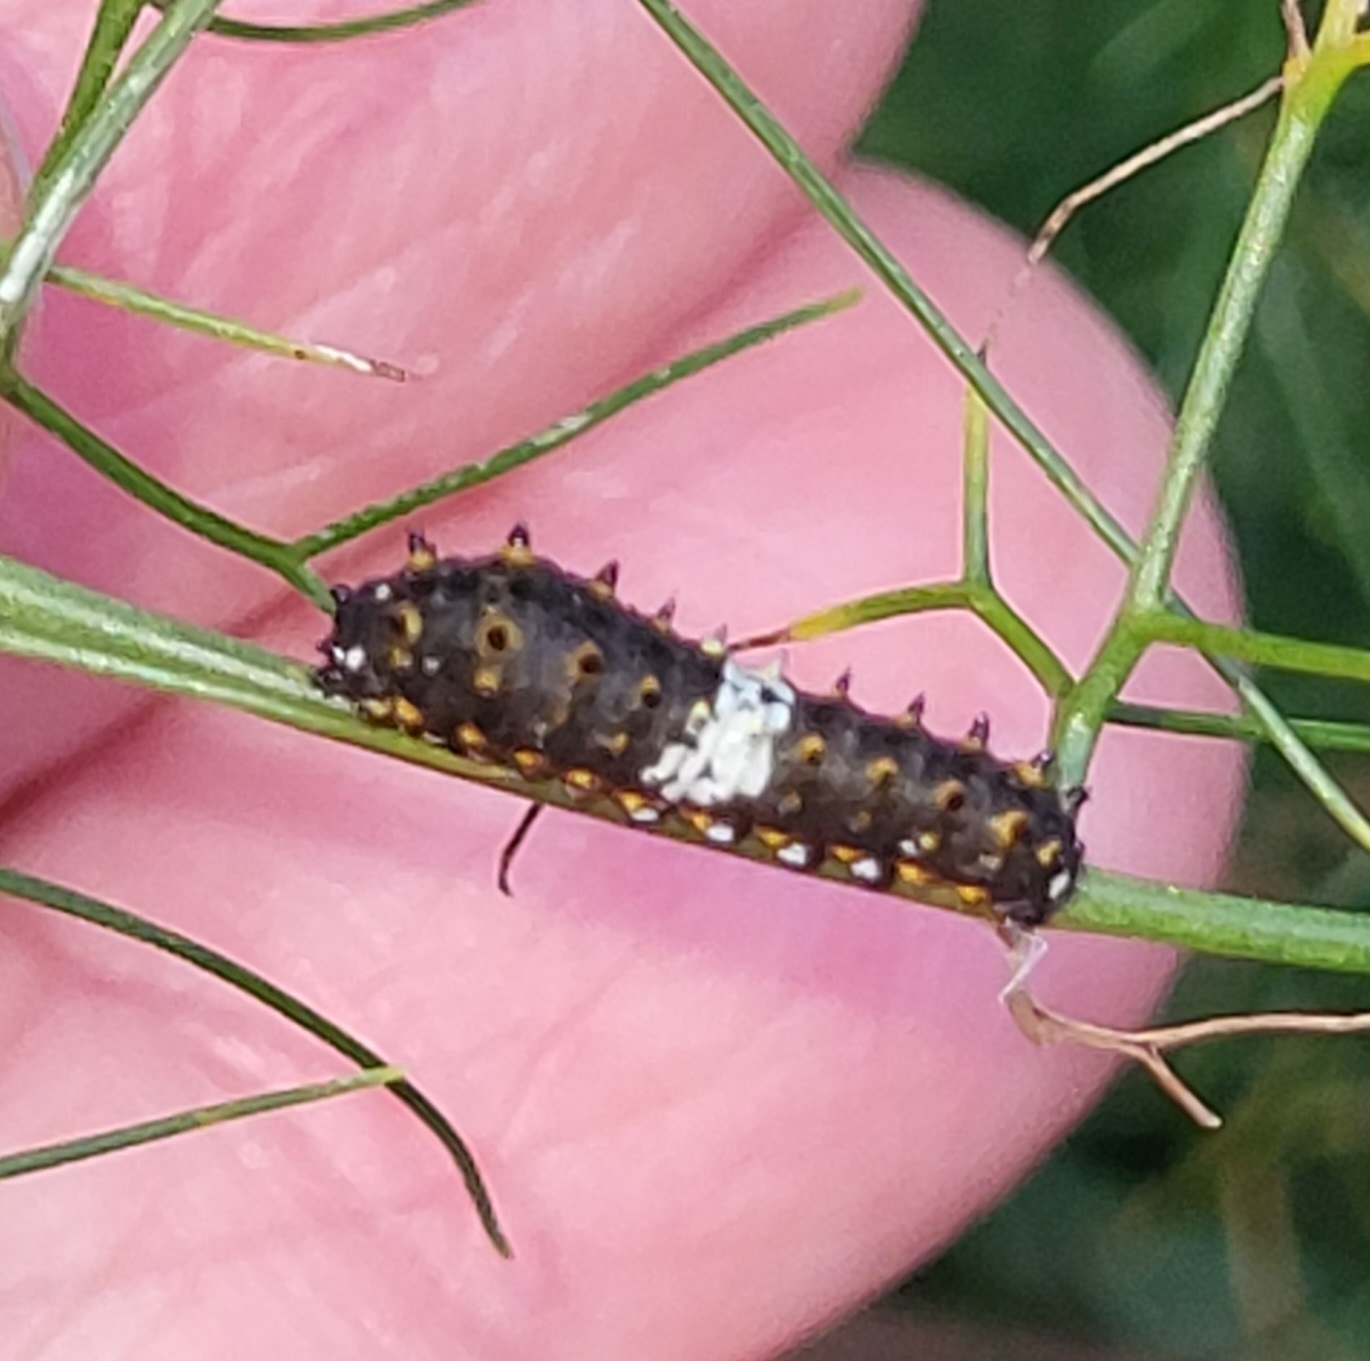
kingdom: Animalia
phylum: Arthropoda
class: Insecta
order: Lepidoptera
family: Papilionidae
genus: Papilio
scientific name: Papilio polyxenes
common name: Black swallowtail
